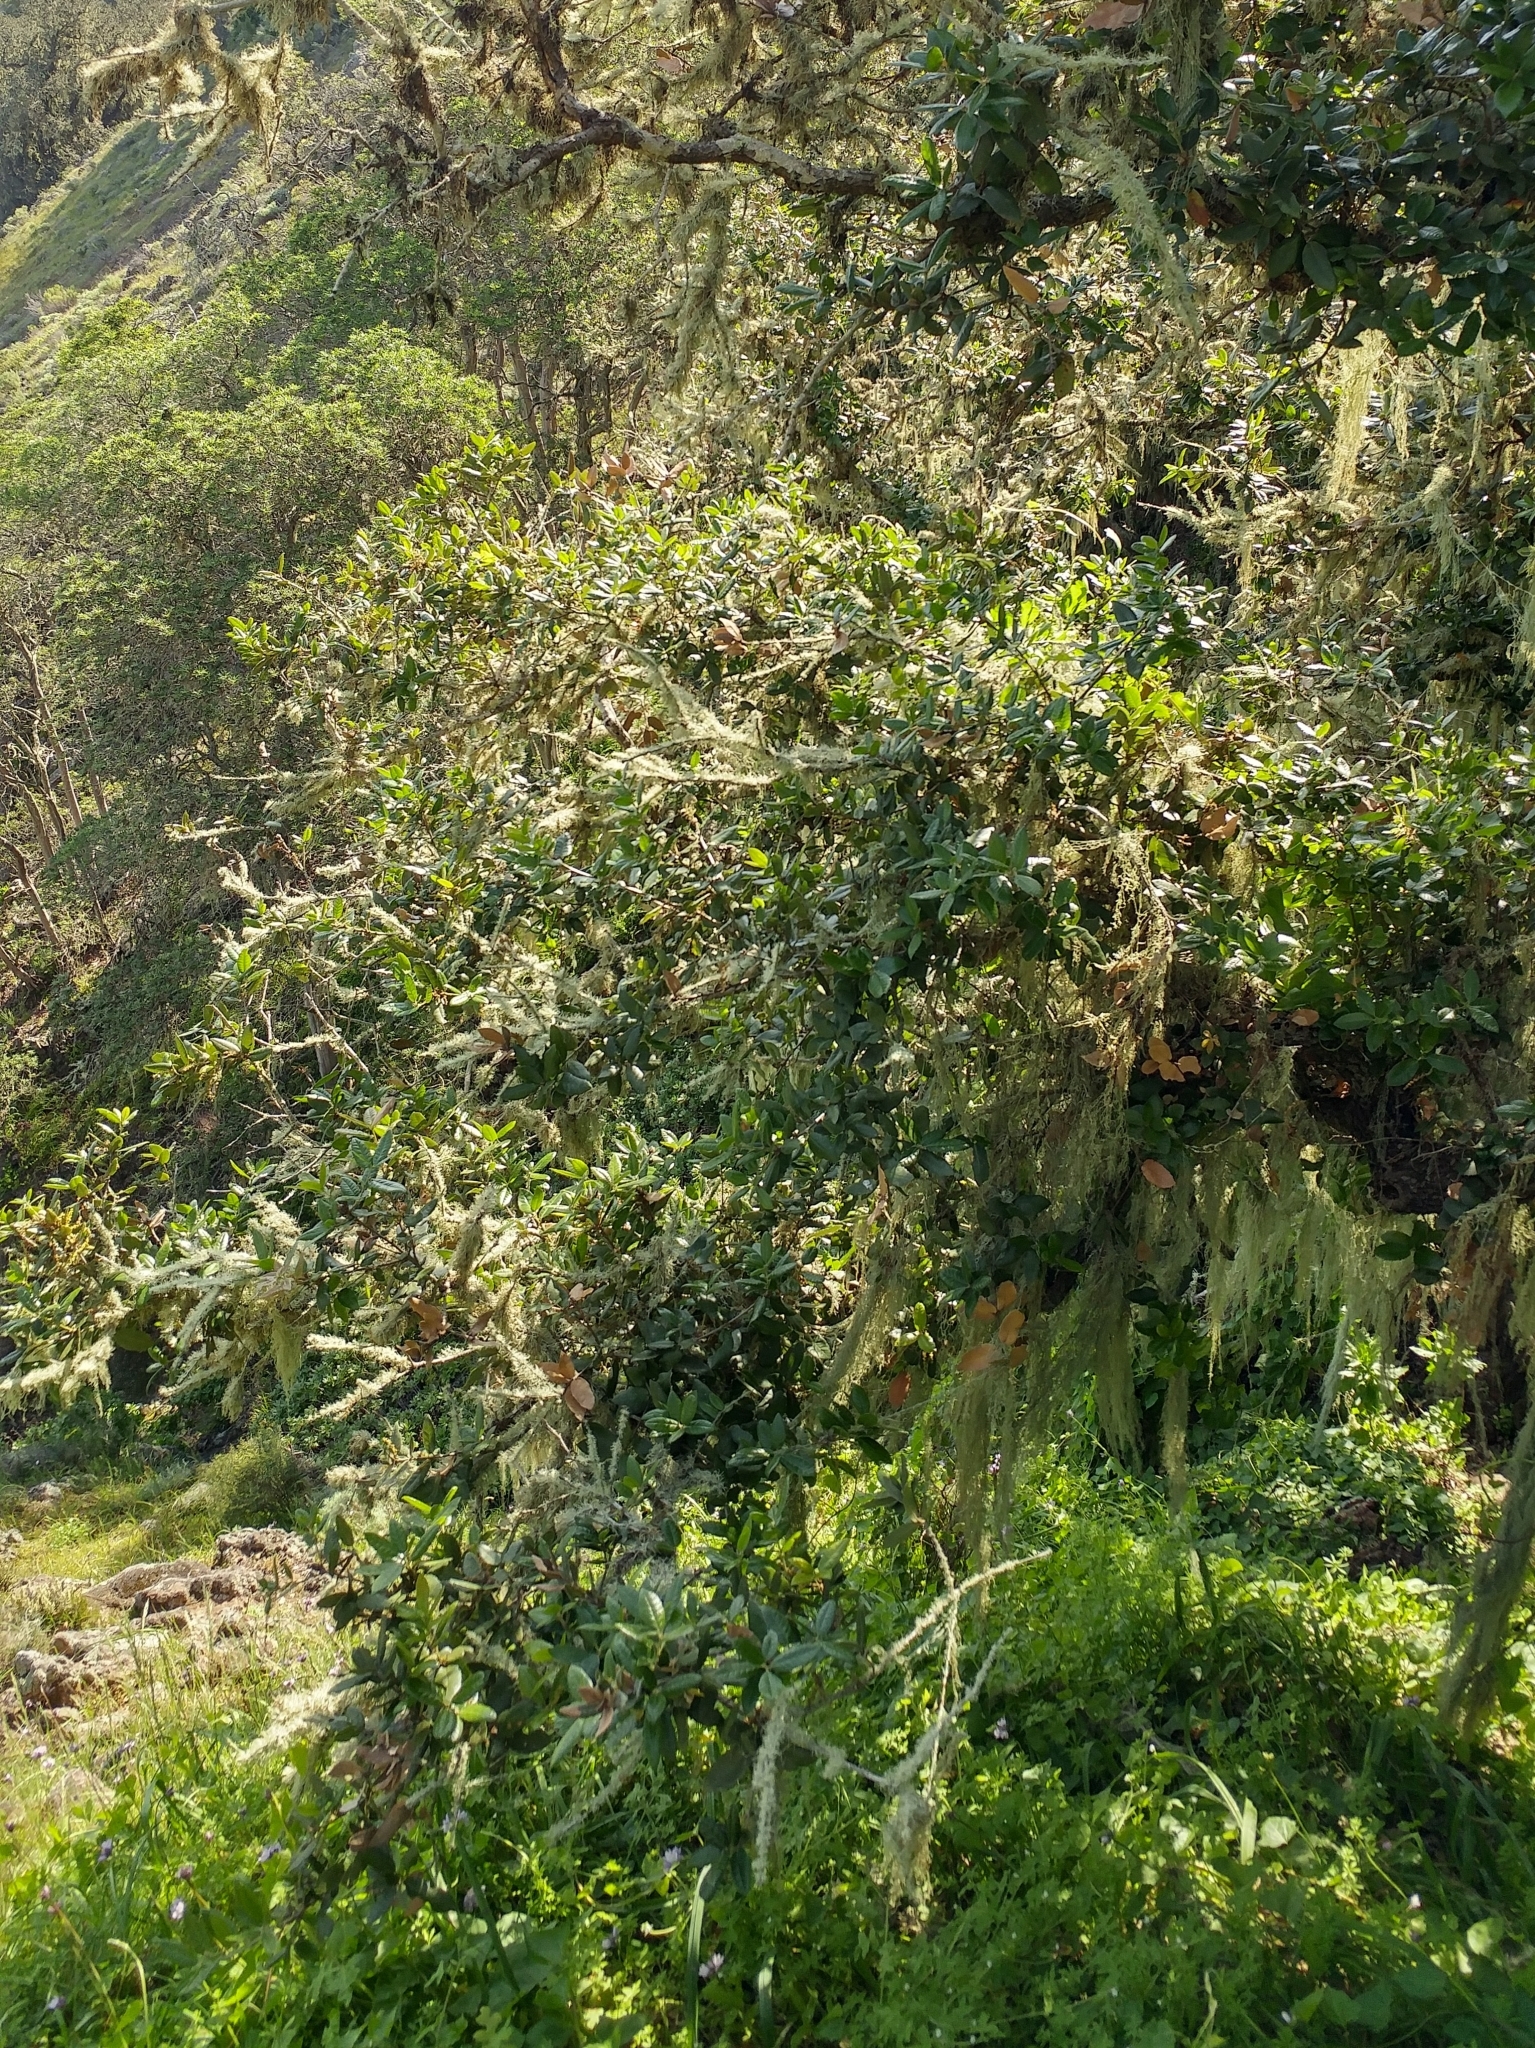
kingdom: Plantae
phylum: Tracheophyta
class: Magnoliopsida
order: Fagales
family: Fagaceae
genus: Quercus
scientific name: Quercus tomentella
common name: Island oak
